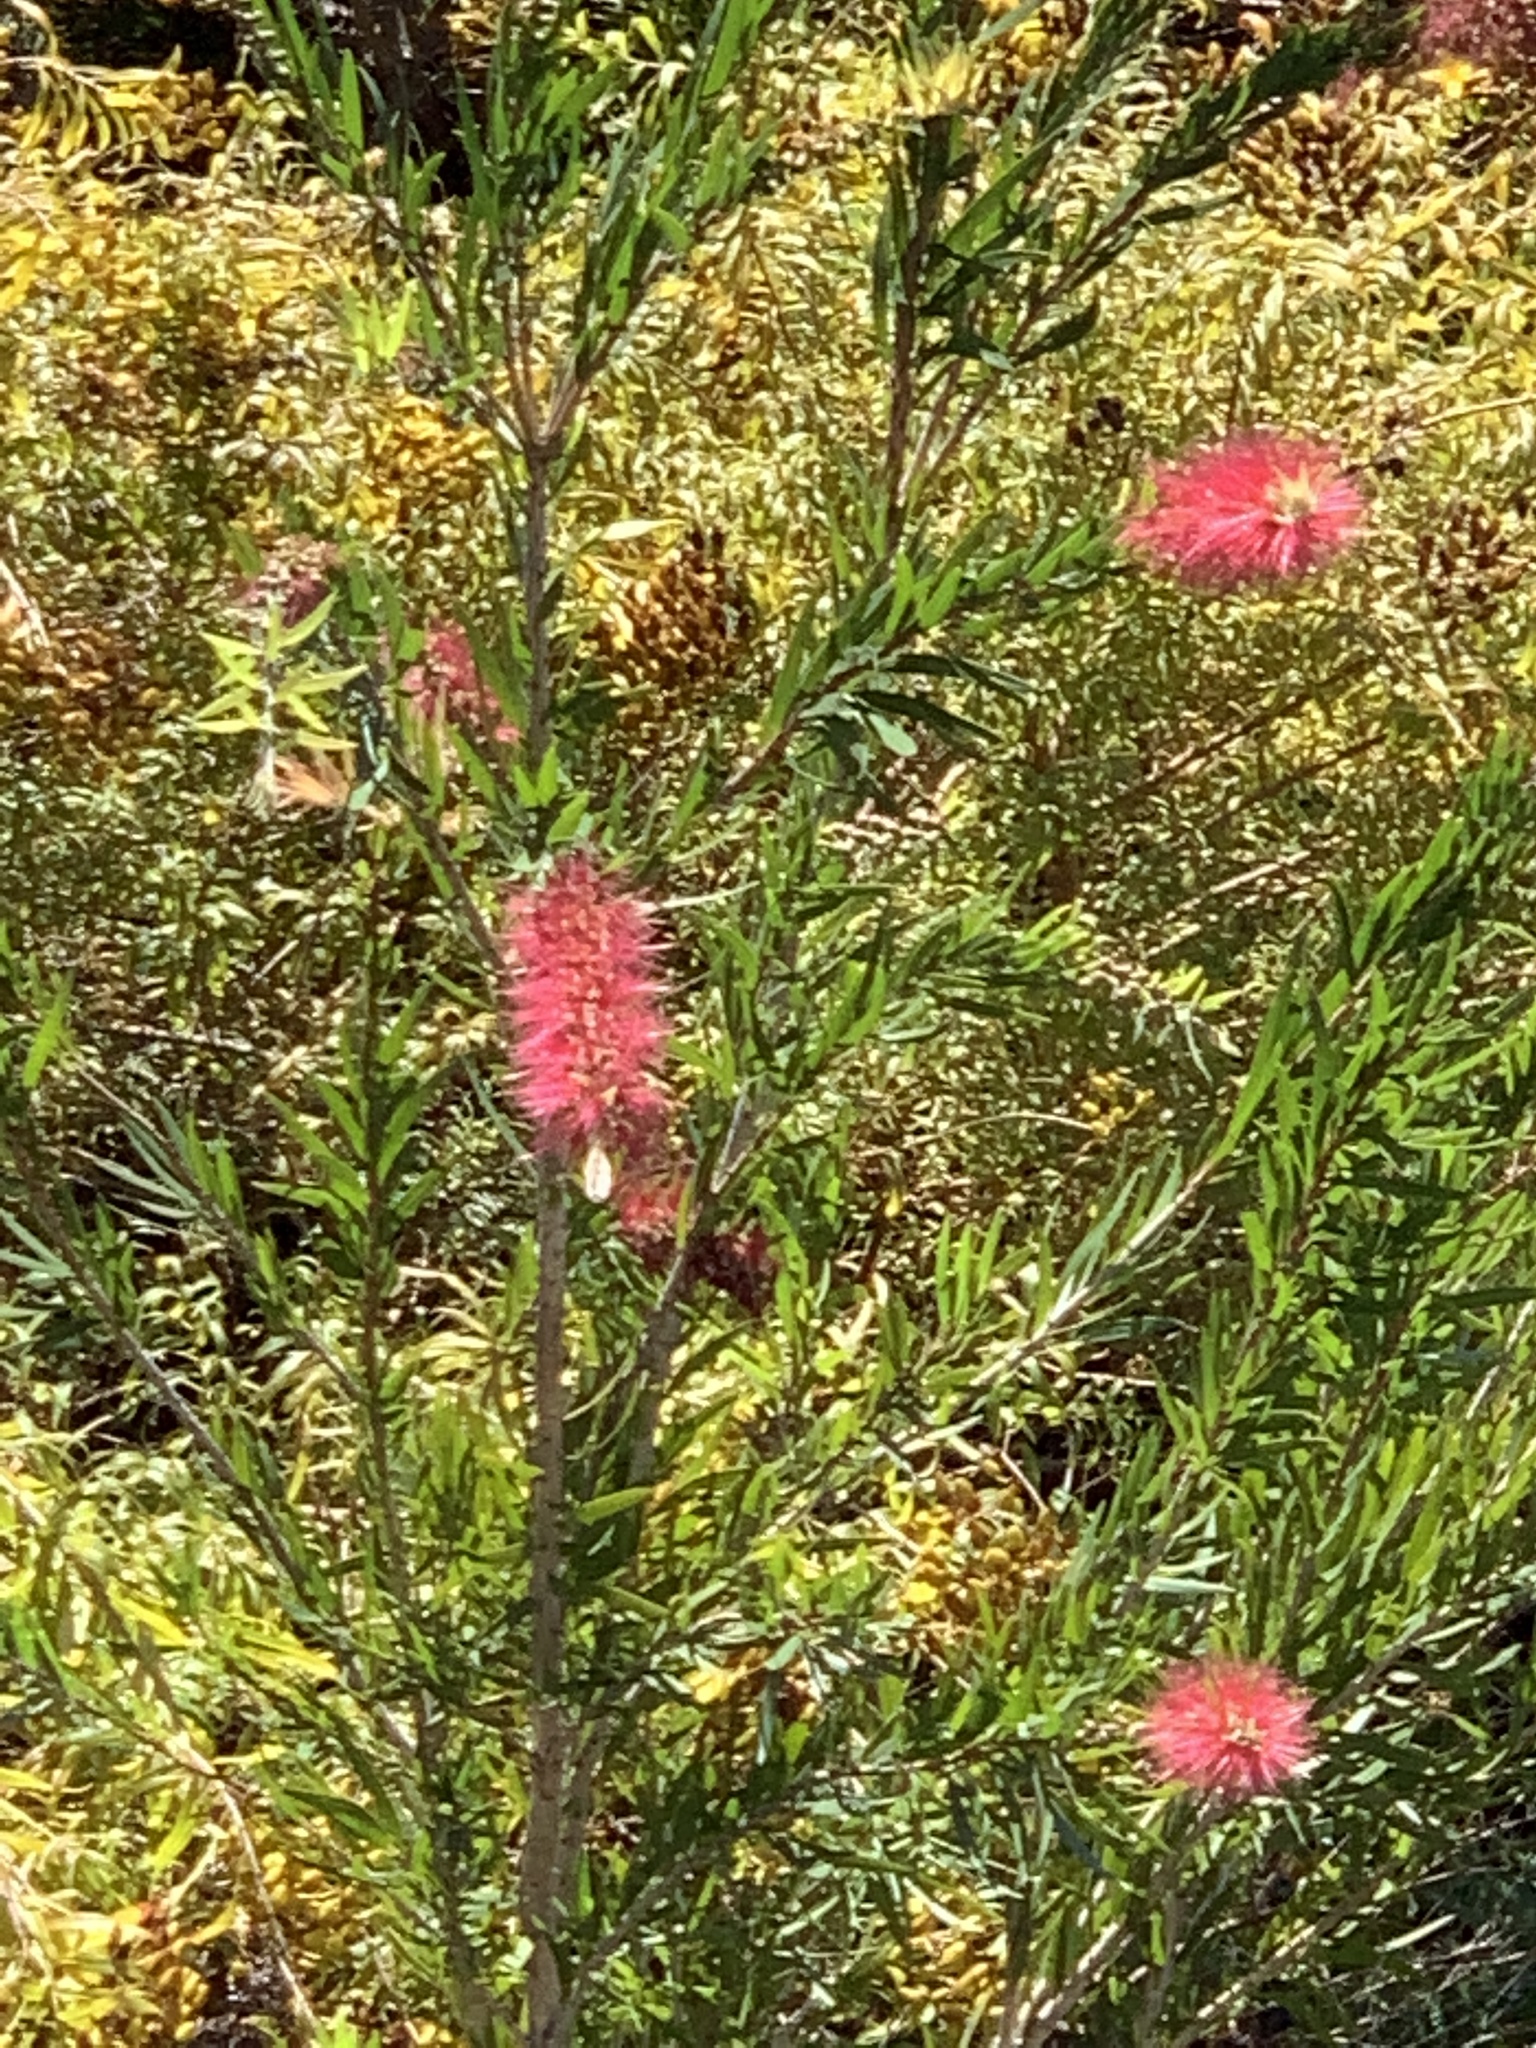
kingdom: Plantae
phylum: Tracheophyta
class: Magnoliopsida
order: Myrtales
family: Myrtaceae
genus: Callistemon
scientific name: Callistemon viminalis
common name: Drooping bottlebrush
